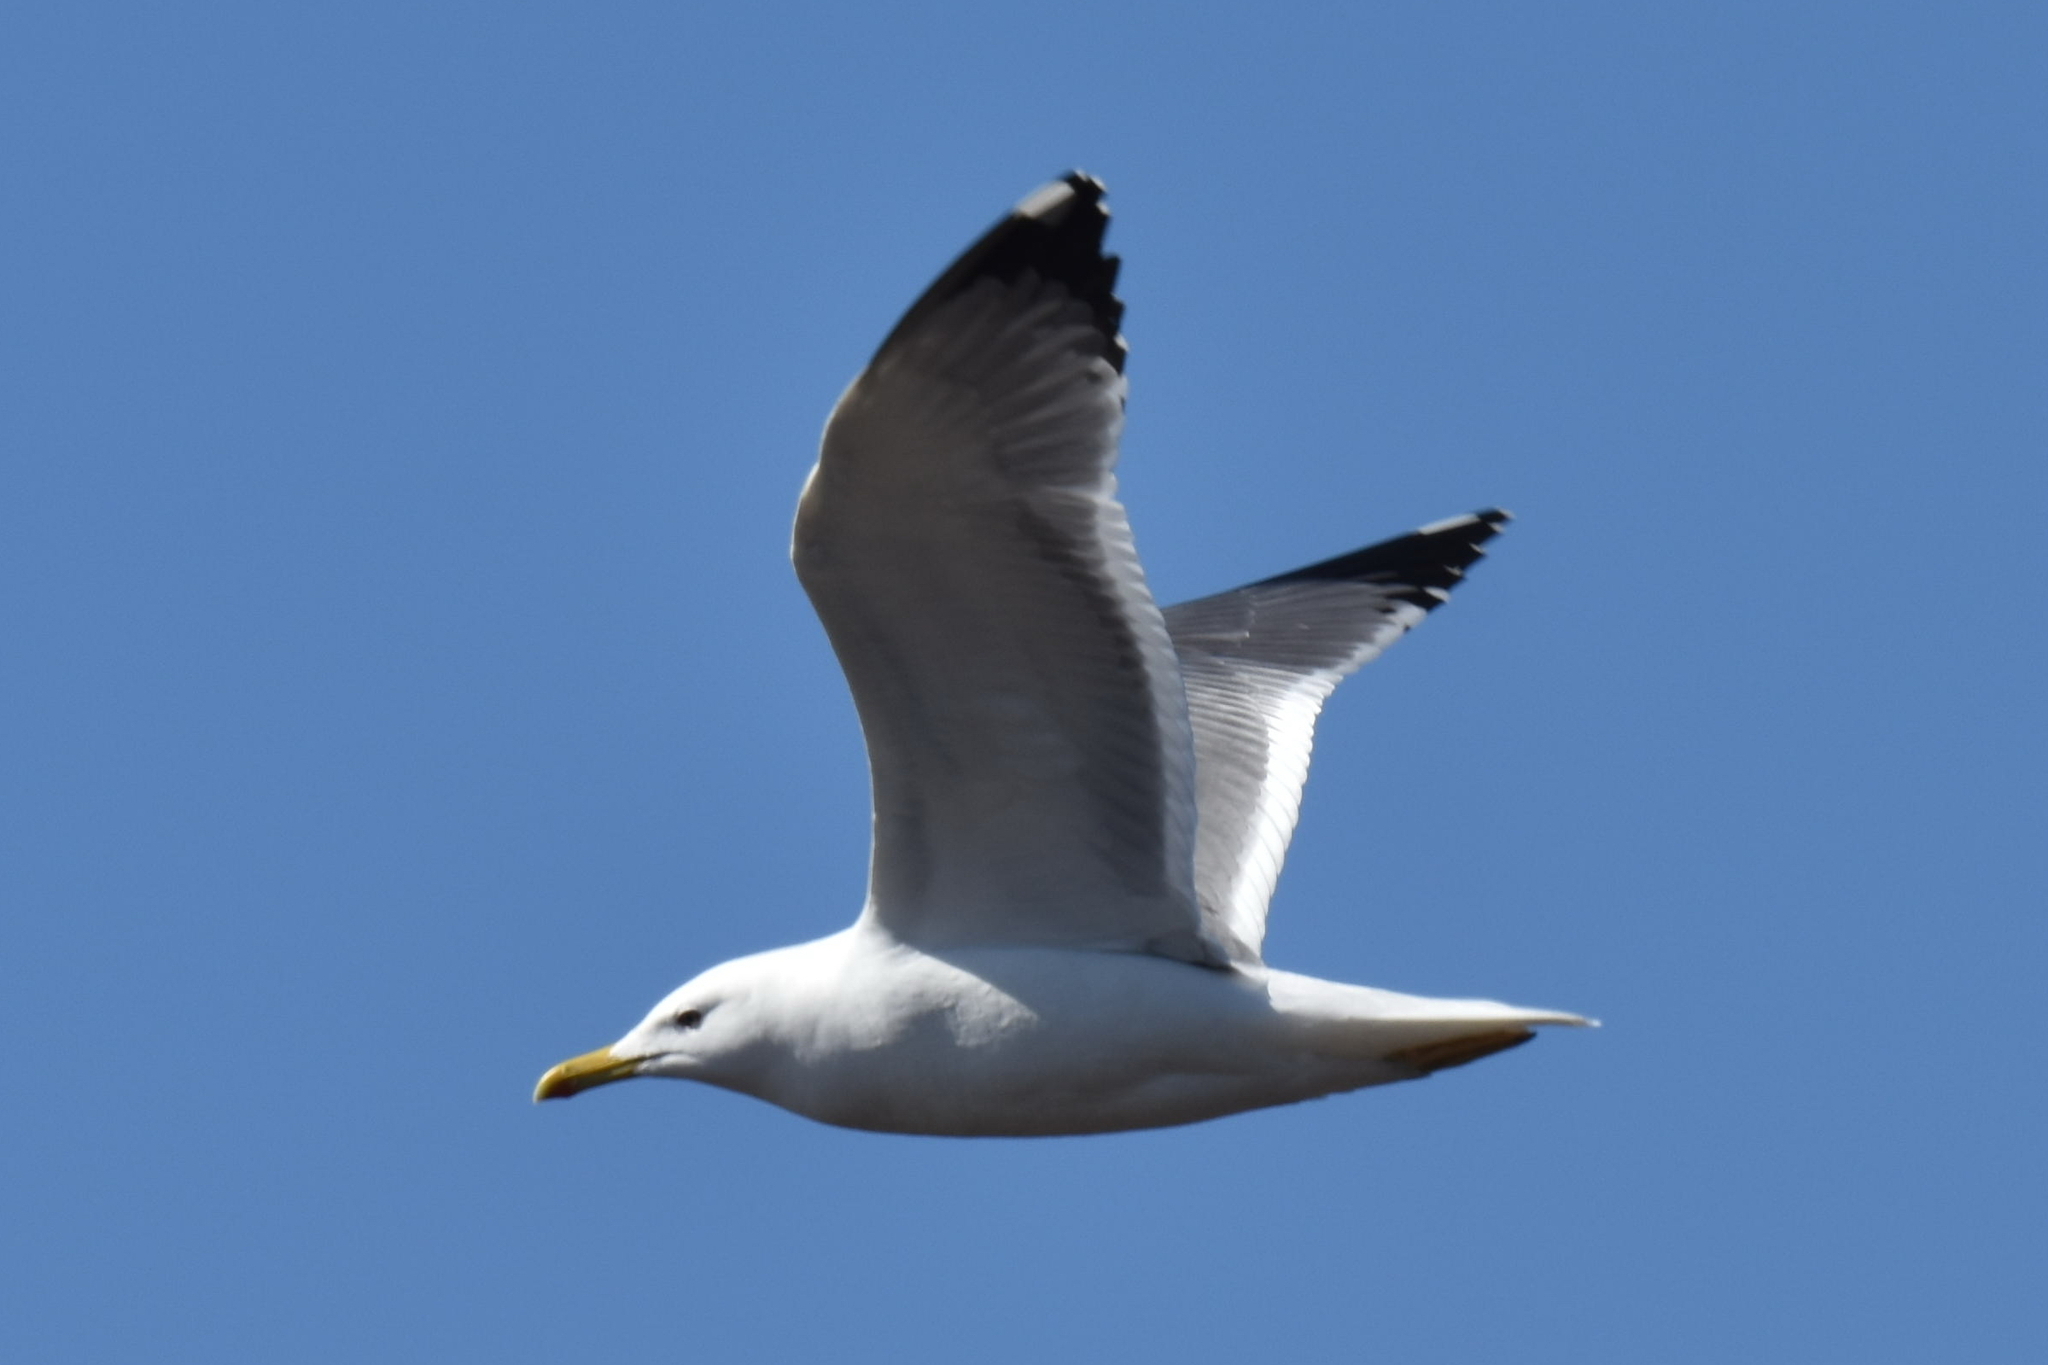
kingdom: Animalia
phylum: Chordata
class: Aves
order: Charadriiformes
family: Laridae
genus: Larus
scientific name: Larus canus
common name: Mew gull
